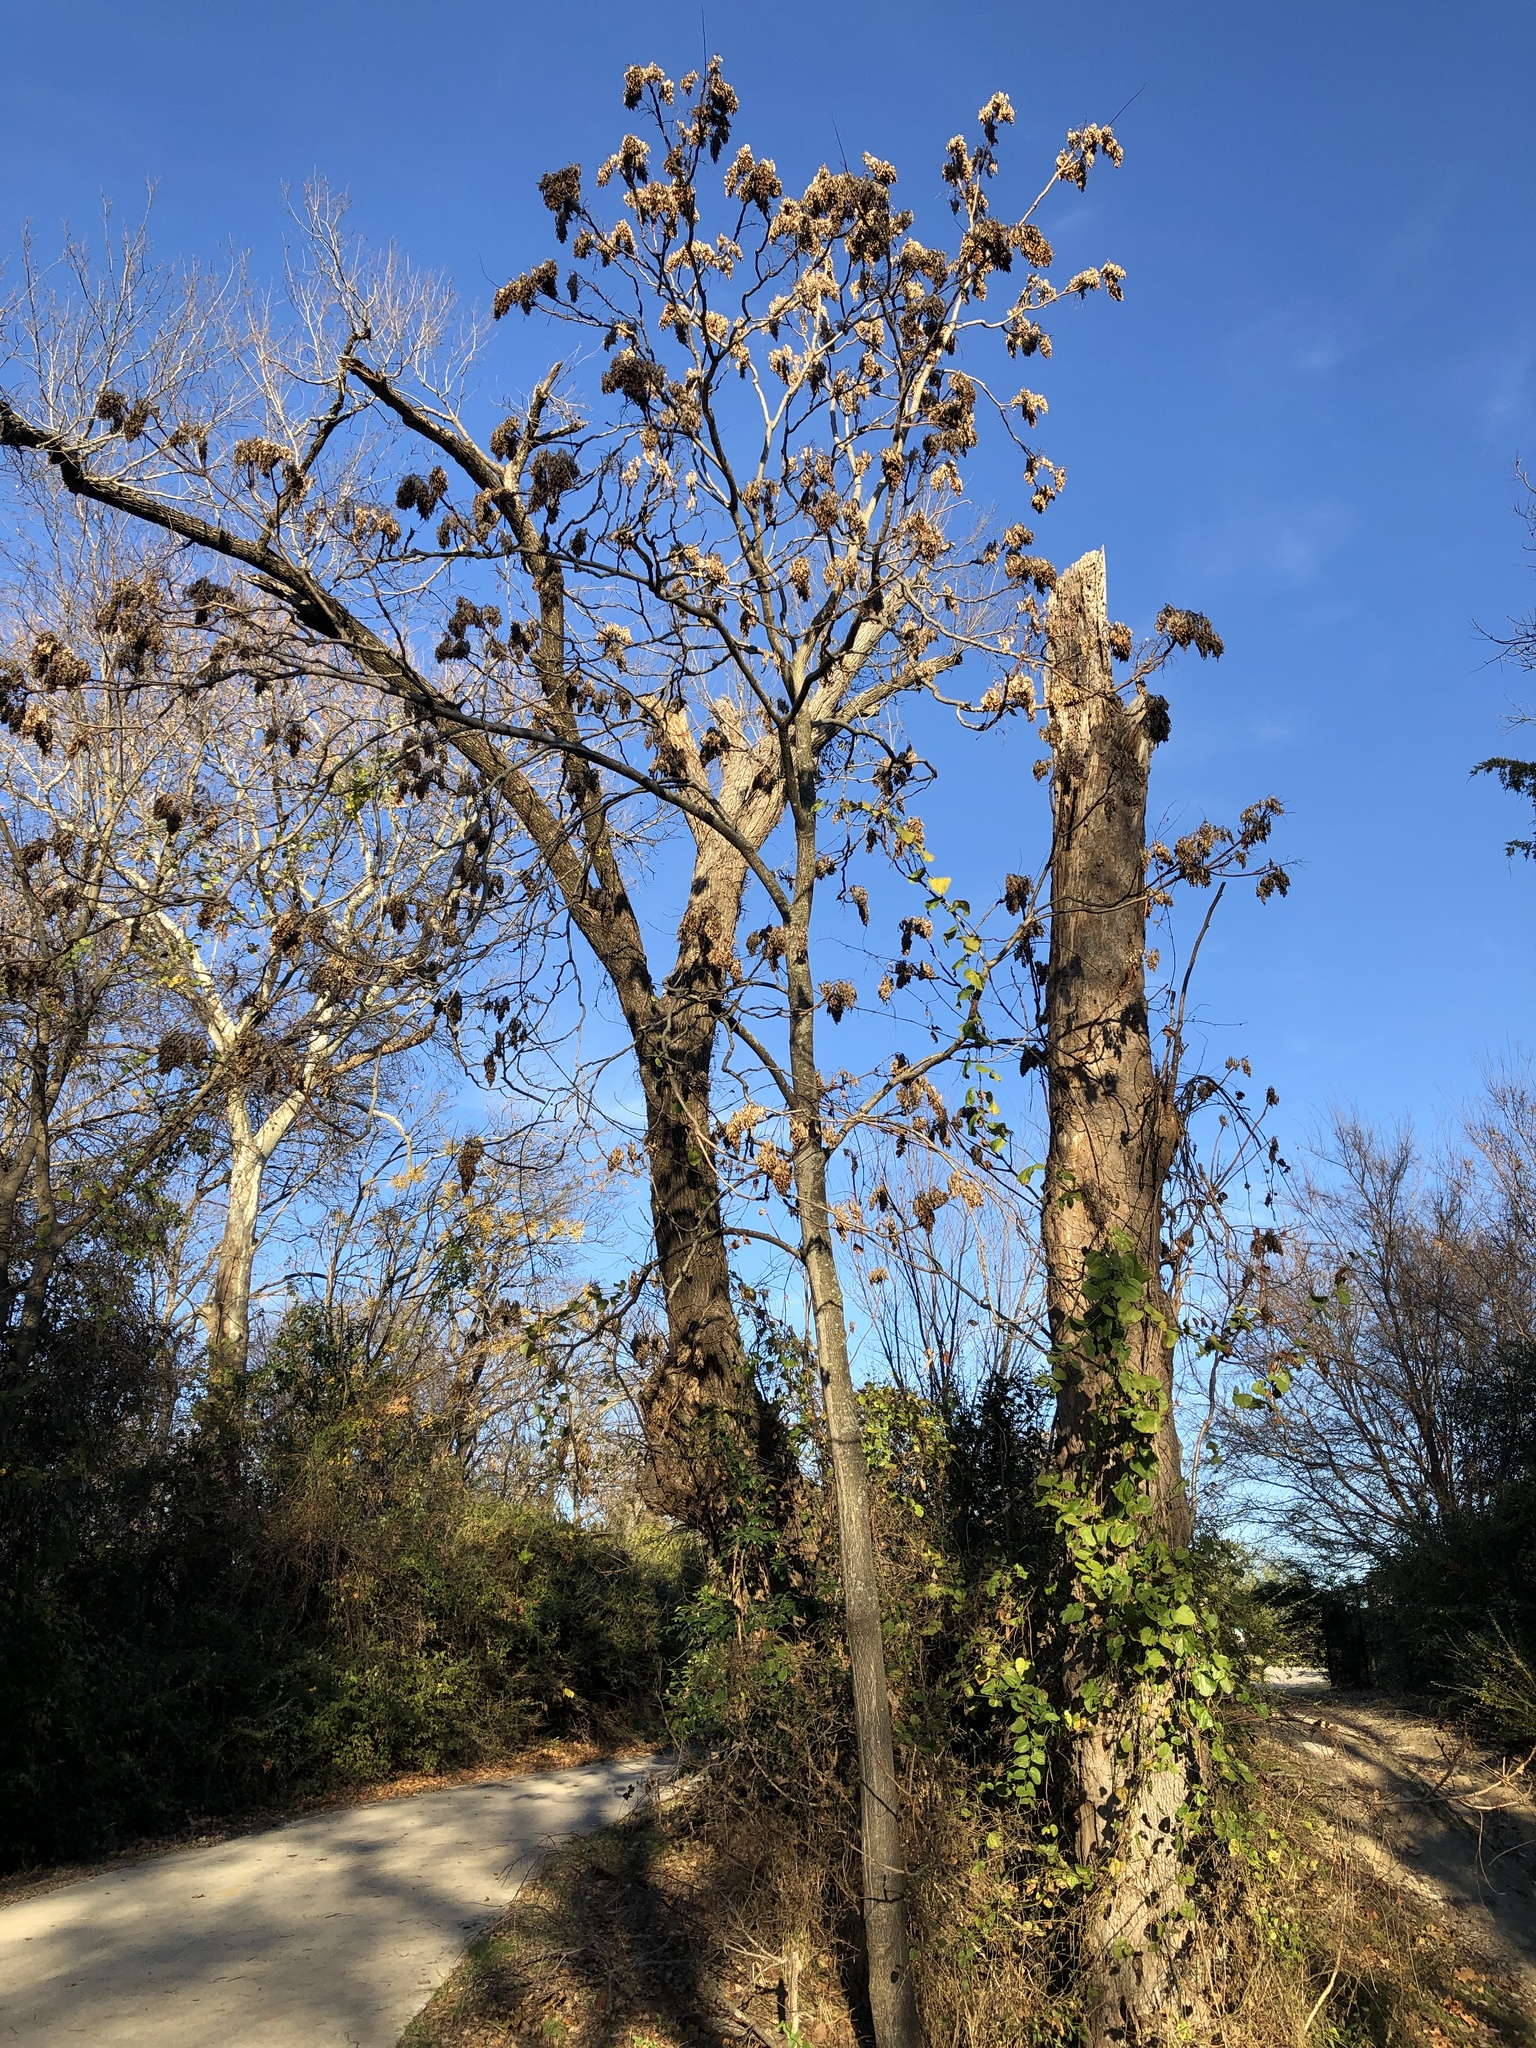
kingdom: Plantae
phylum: Tracheophyta
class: Magnoliopsida
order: Sapindales
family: Simaroubaceae
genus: Ailanthus
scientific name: Ailanthus altissima
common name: Tree-of-heaven
